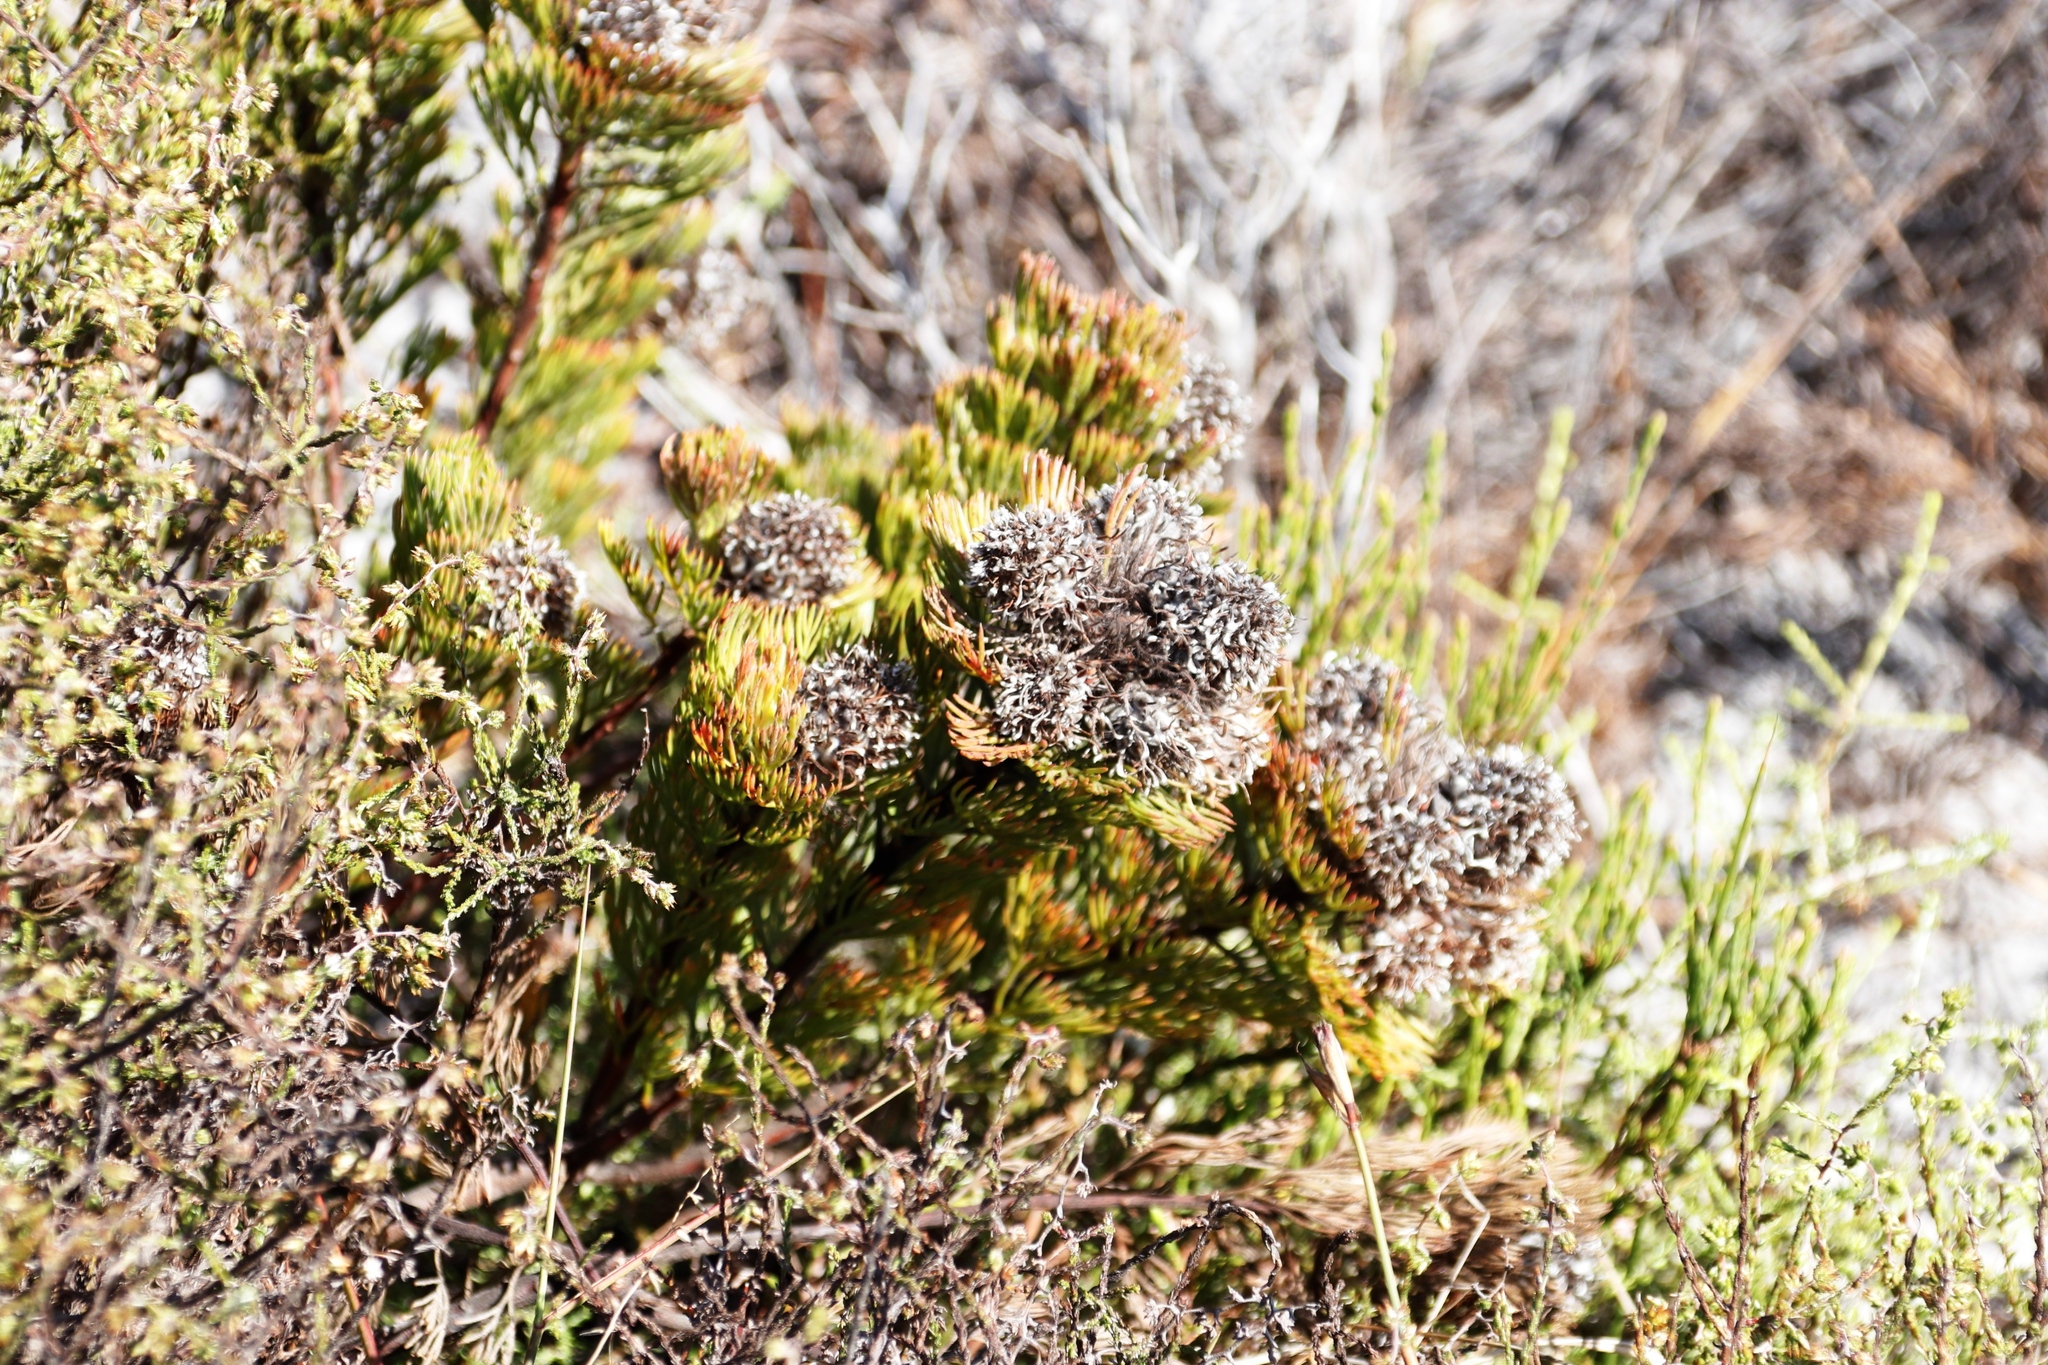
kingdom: Plantae
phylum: Tracheophyta
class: Magnoliopsida
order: Proteales
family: Proteaceae
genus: Serruria
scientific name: Serruria villosa
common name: Golden spiderhead
